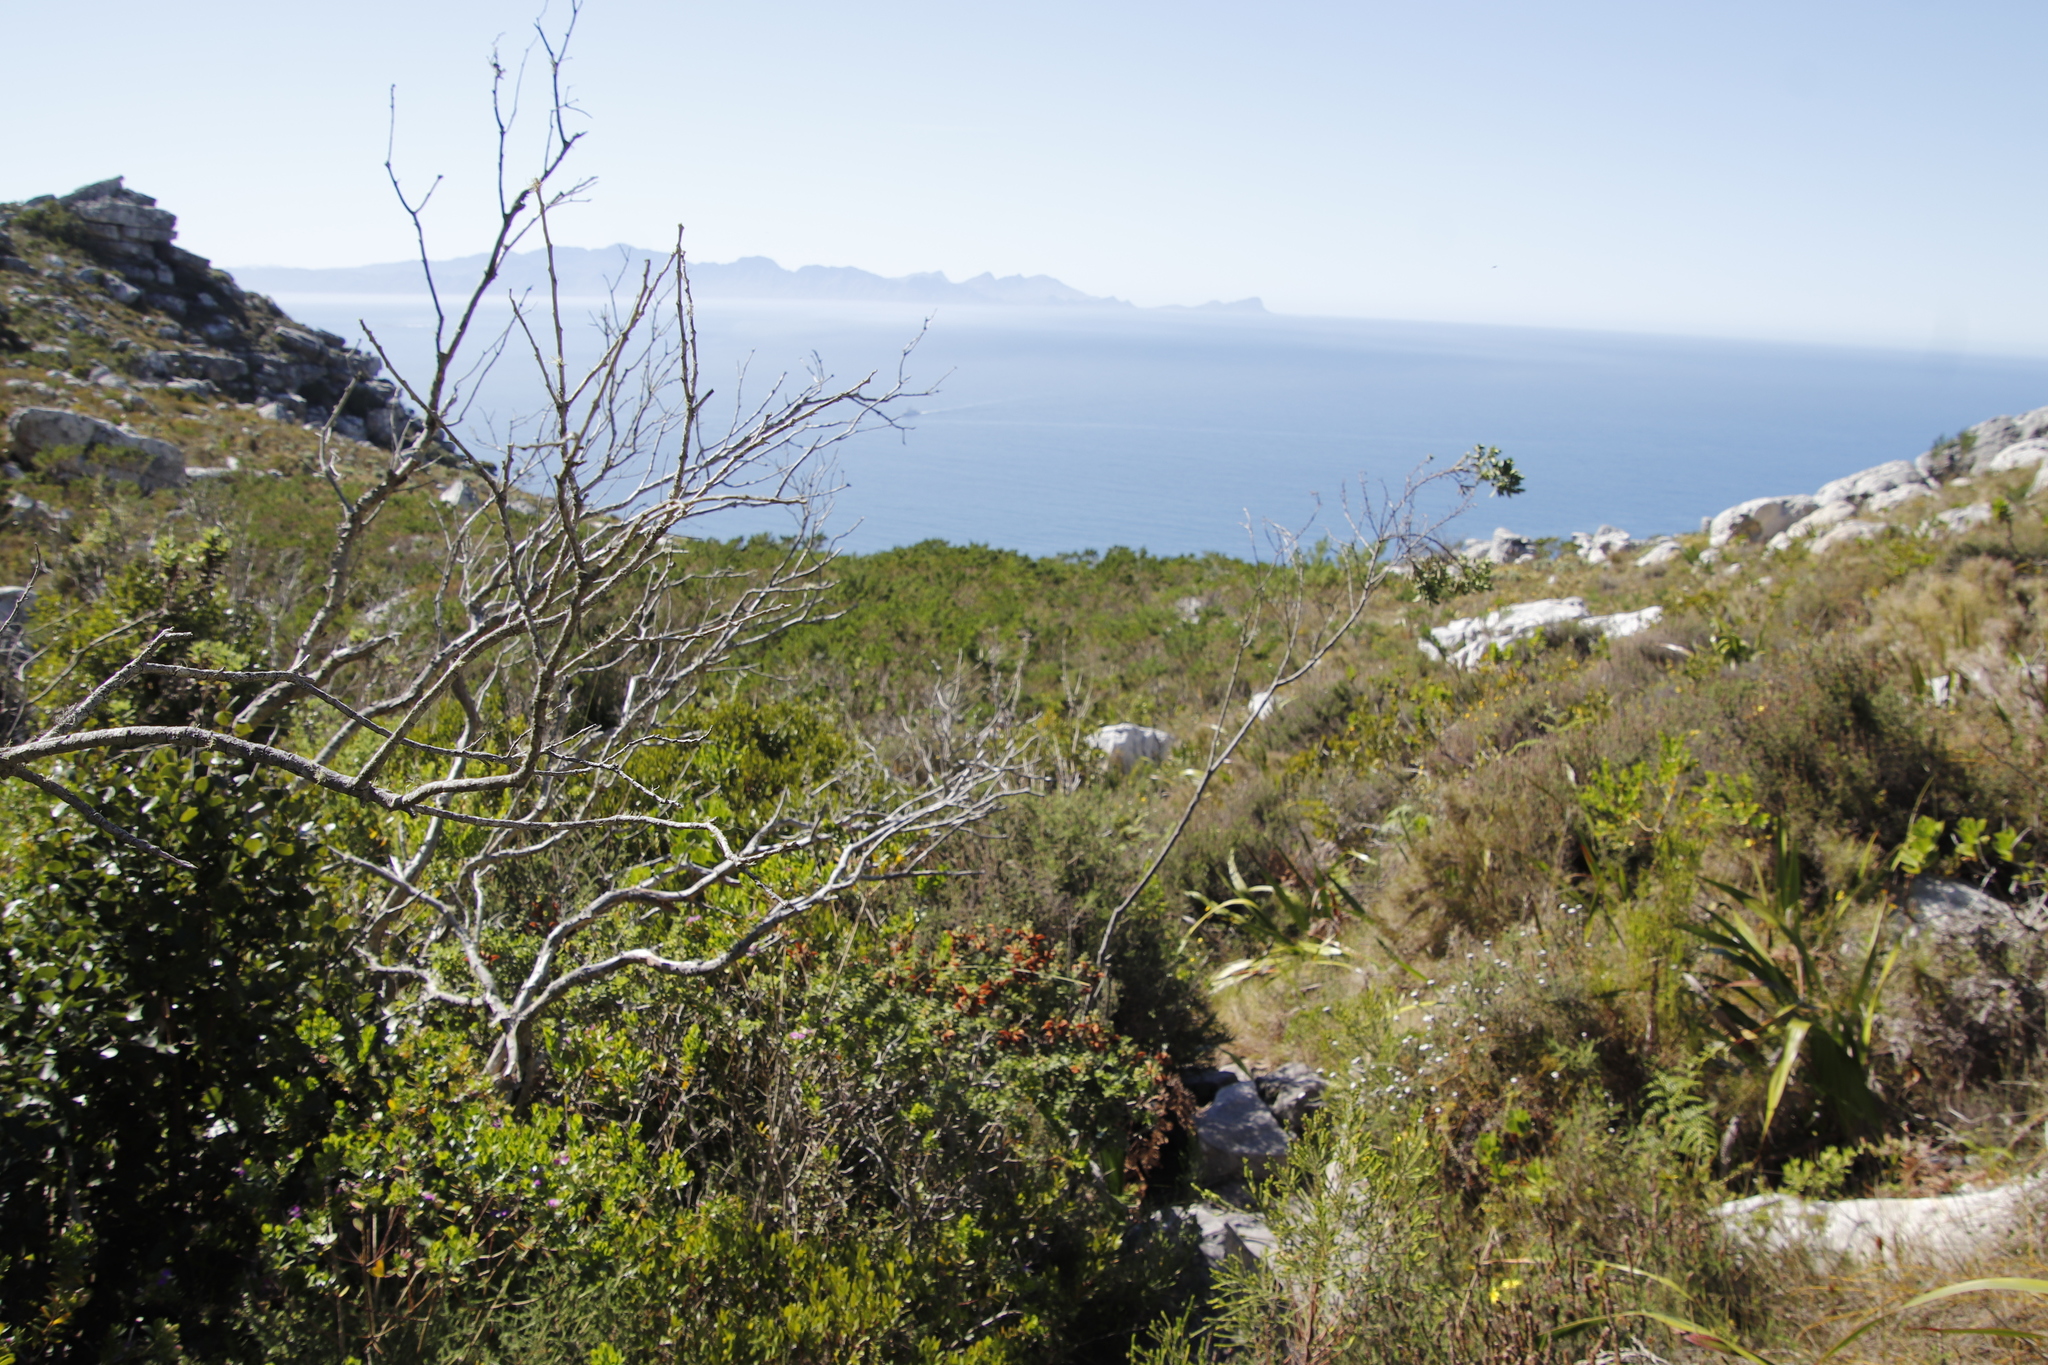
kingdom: Plantae
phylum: Tracheophyta
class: Magnoliopsida
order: Fabales
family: Fabaceae
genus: Psoralea
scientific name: Psoralea pinnata
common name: African scurfpea
